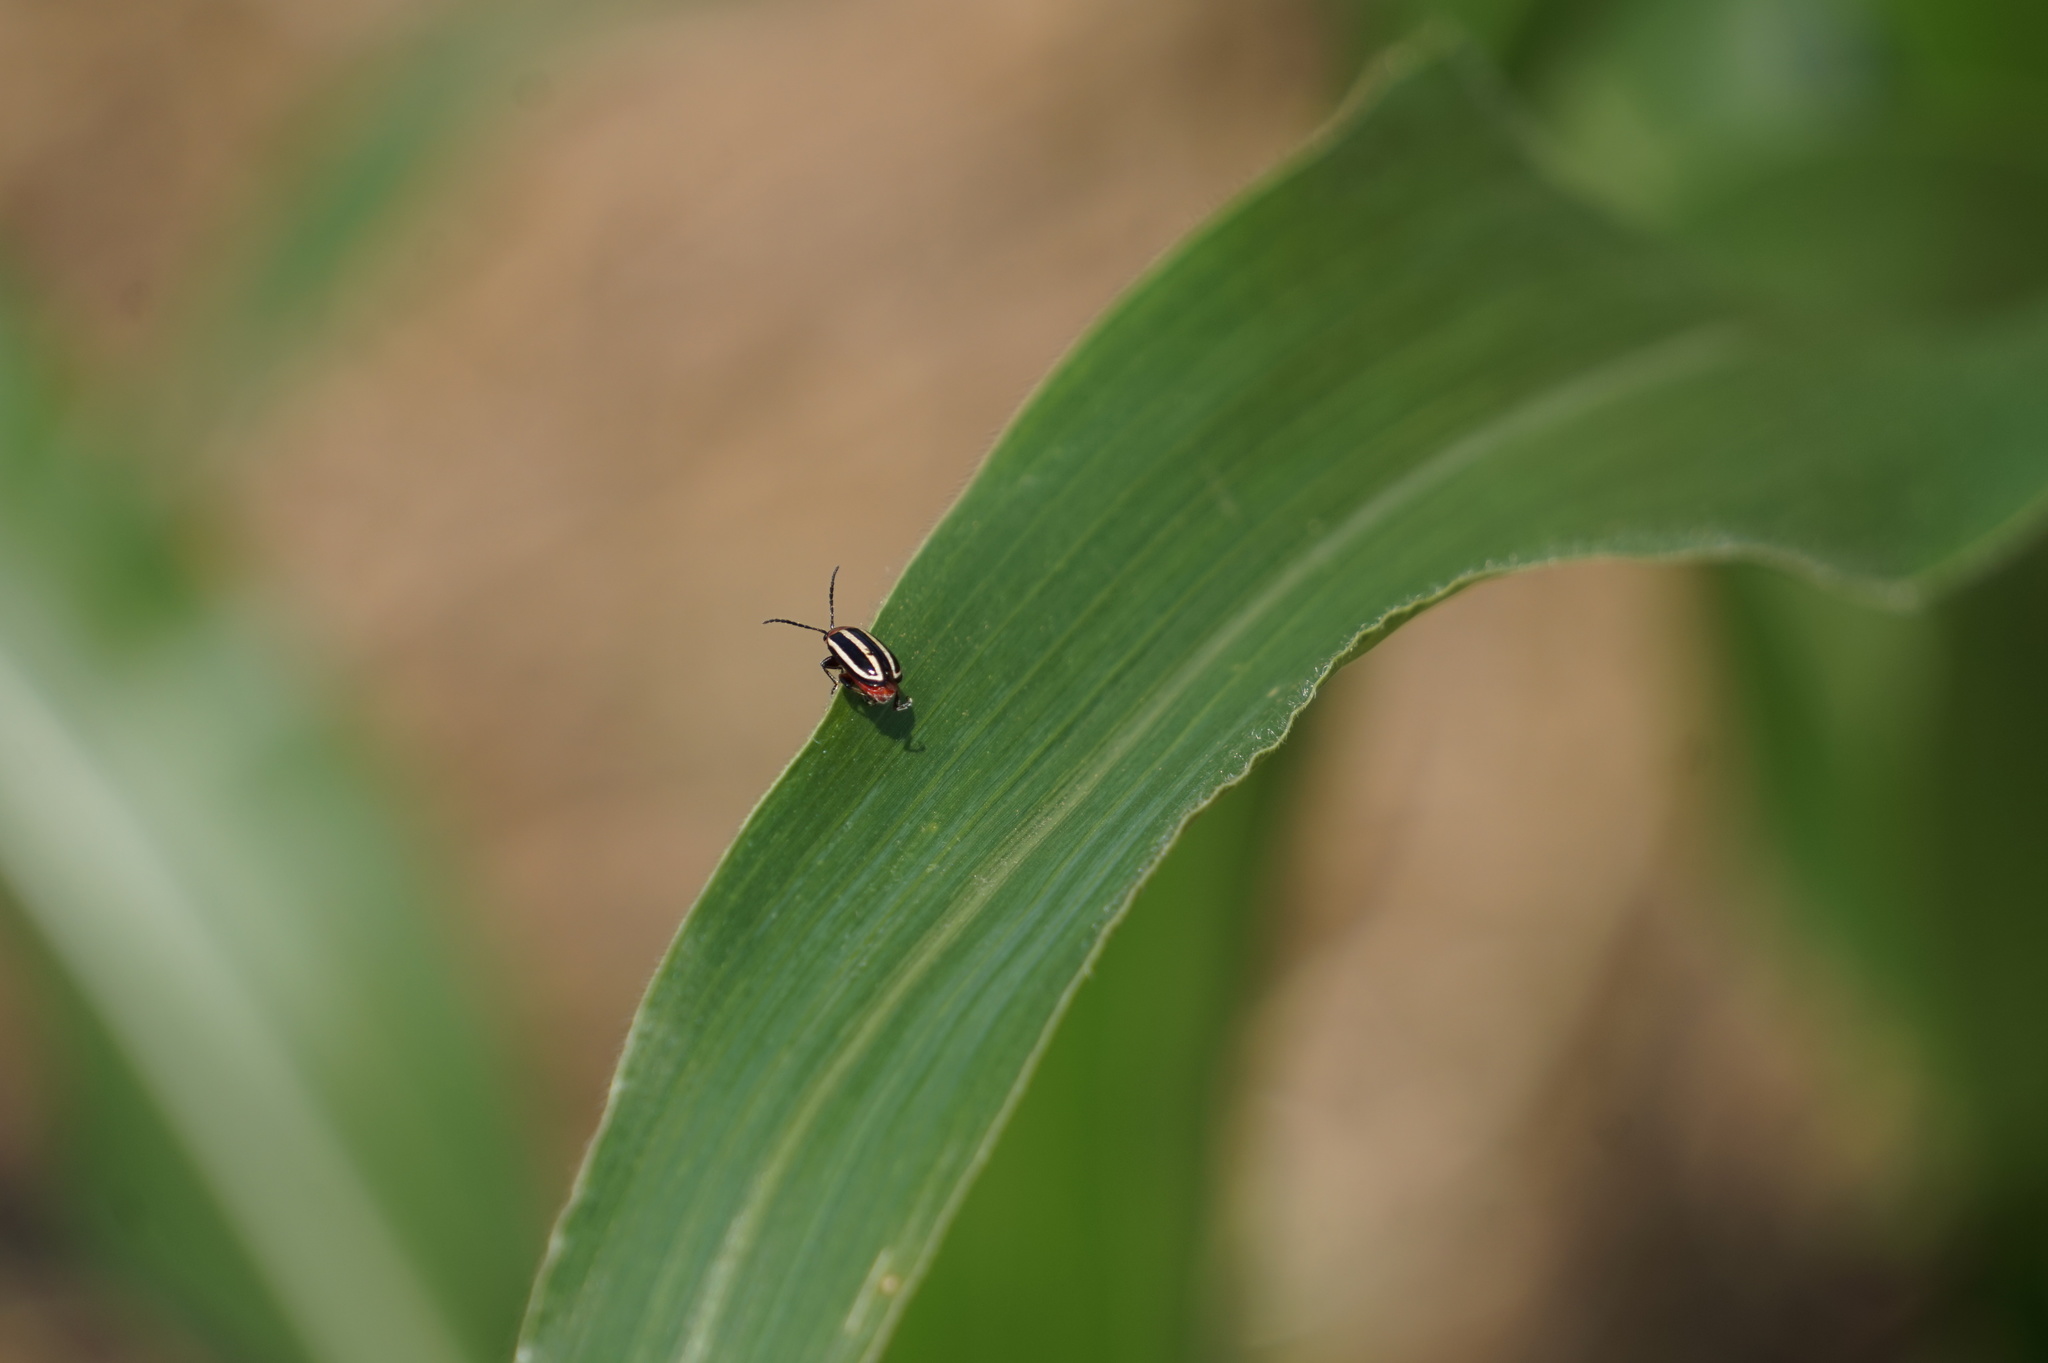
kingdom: Animalia
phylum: Arthropoda
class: Insecta
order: Coleoptera
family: Chrysomelidae
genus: Disonycha
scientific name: Disonycha glabrata
